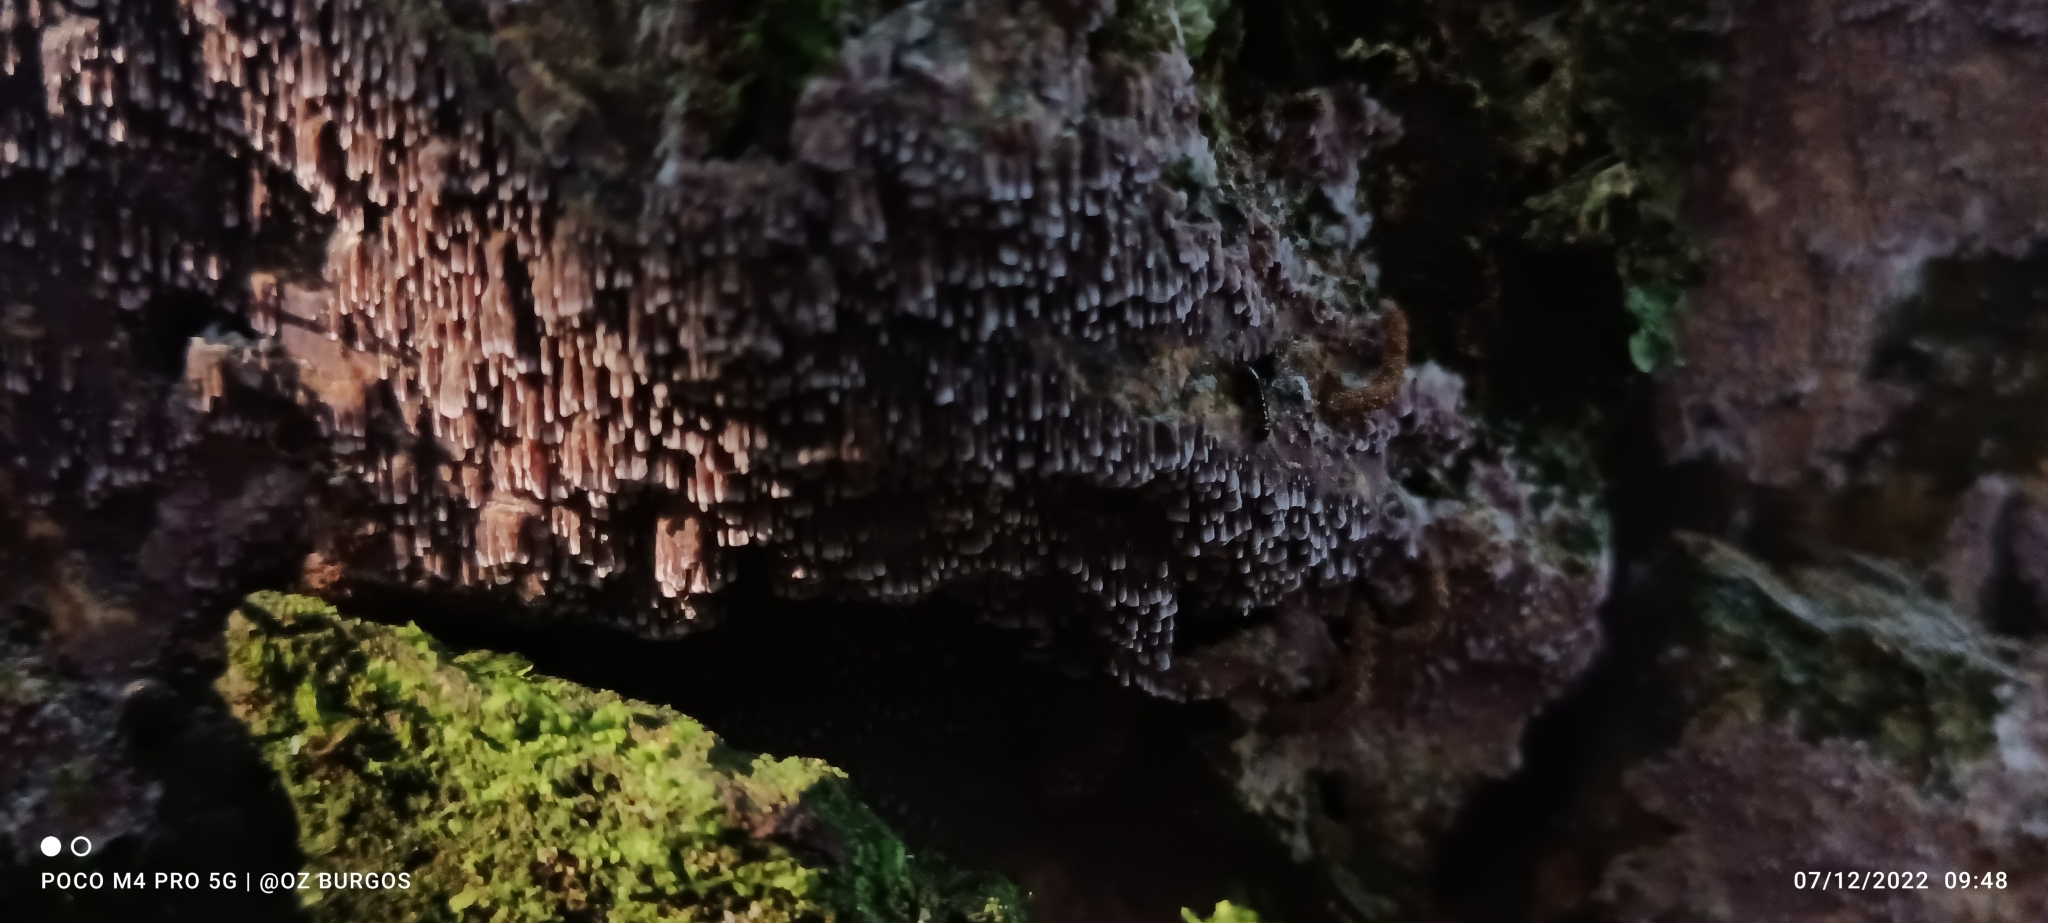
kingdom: Fungi
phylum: Basidiomycota
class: Agaricomycetes
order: Polyporales
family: Phanerochaetaceae
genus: Phlebiopsis
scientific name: Phlebiopsis crassa
